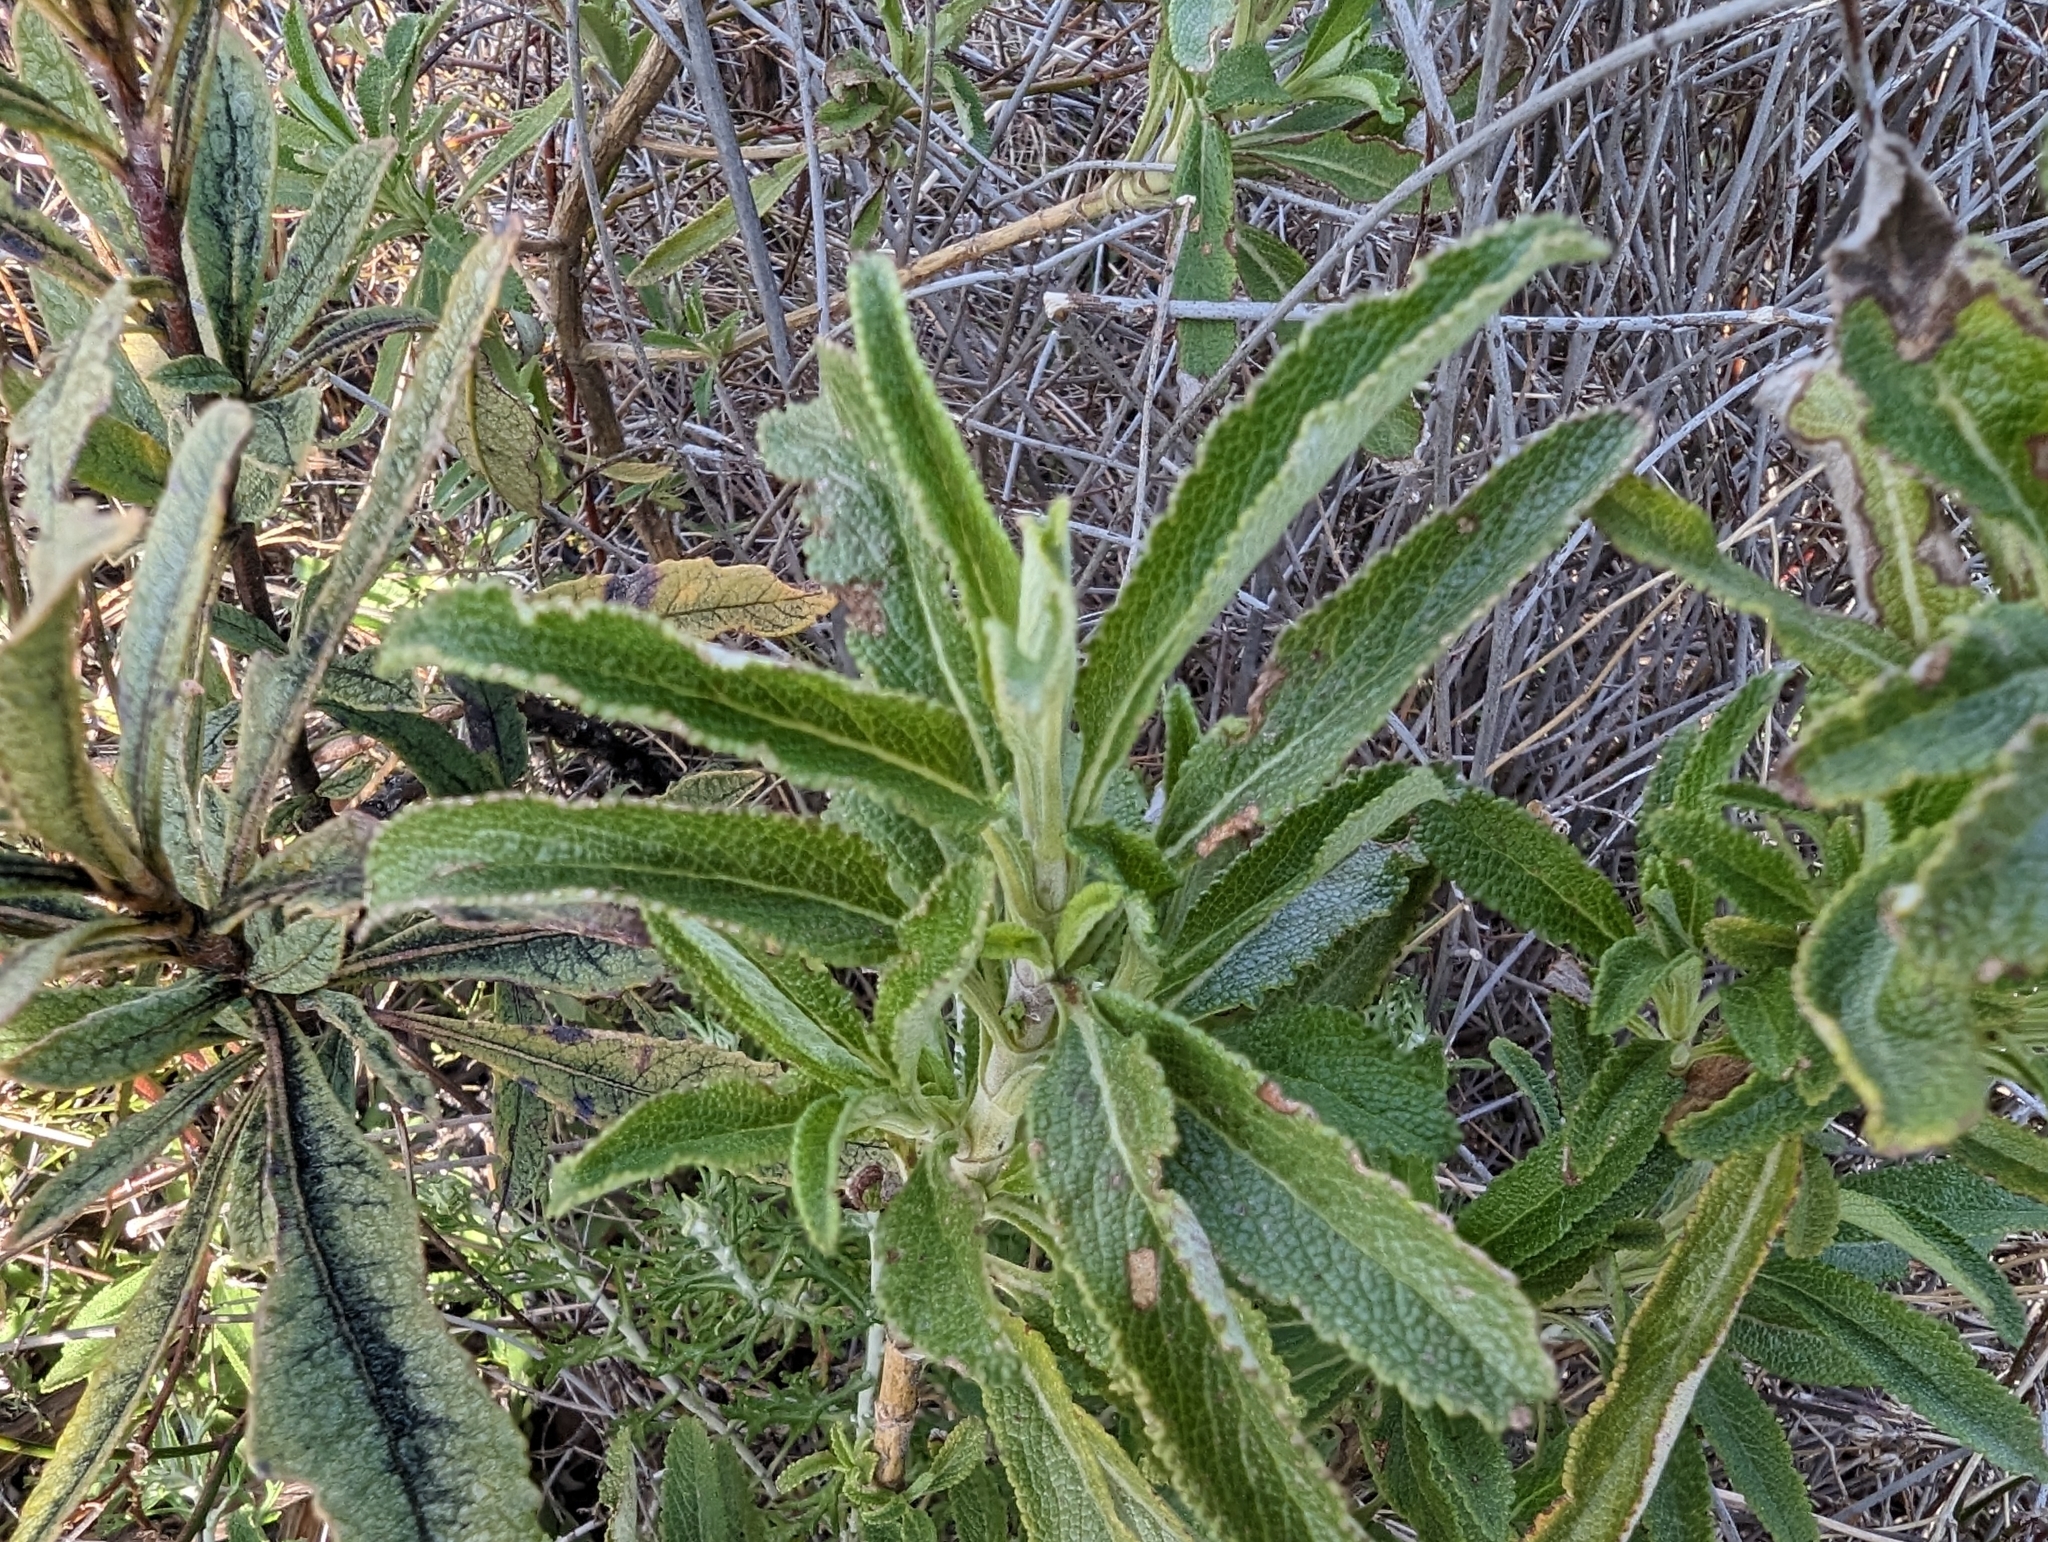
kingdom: Plantae
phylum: Tracheophyta
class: Magnoliopsida
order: Lamiales
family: Lamiaceae
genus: Salvia
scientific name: Salvia mellifera
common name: Black sage
